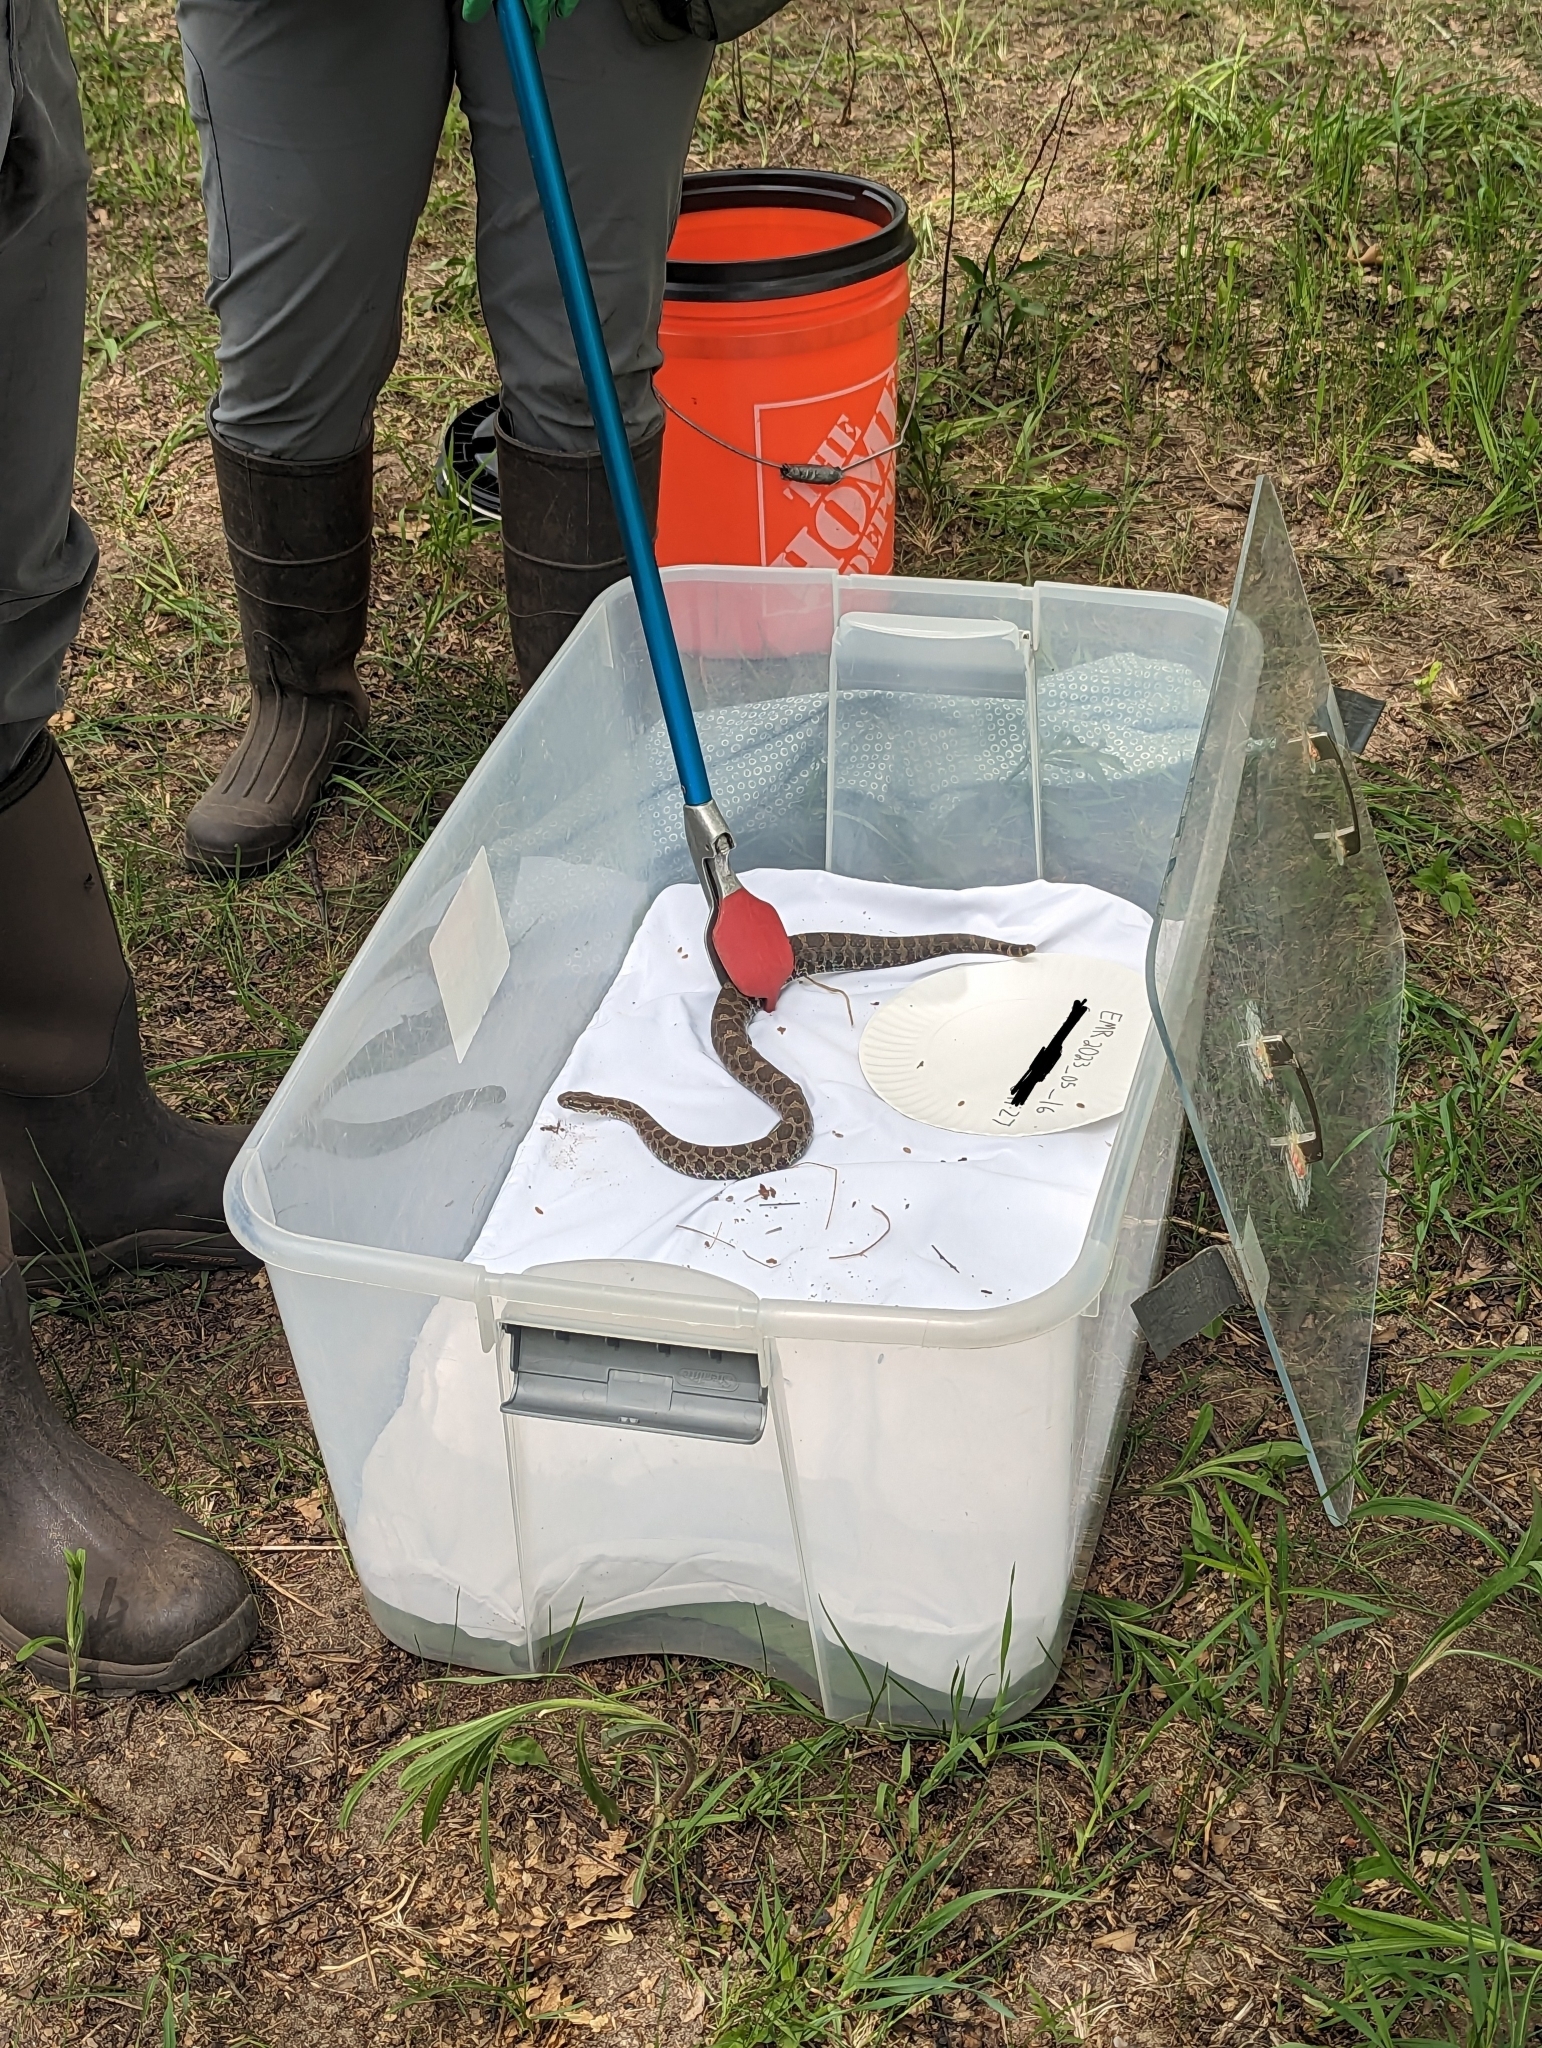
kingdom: Animalia
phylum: Chordata
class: Squamata
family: Viperidae
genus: Sistrurus
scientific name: Sistrurus catenatus
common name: Massasauga
